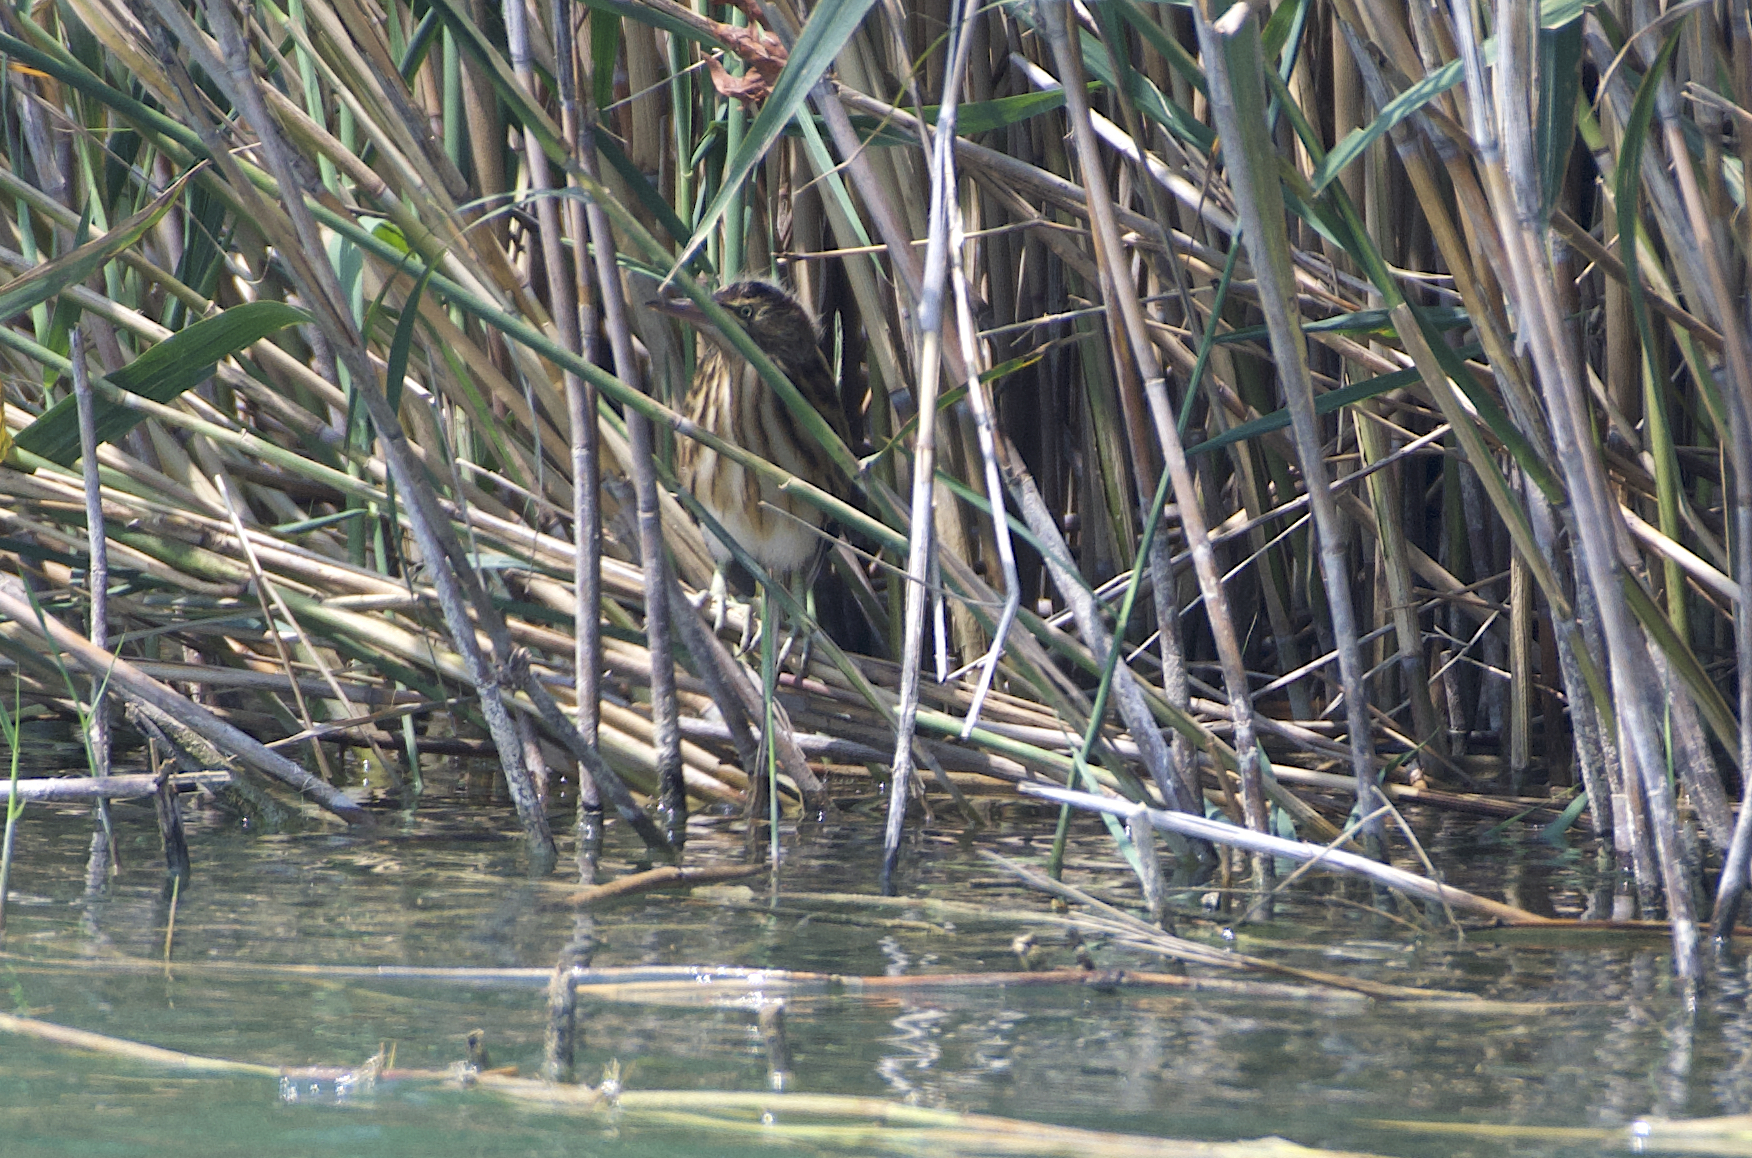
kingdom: Animalia
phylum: Chordata
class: Aves
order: Pelecaniformes
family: Ardeidae
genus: Ixobrychus
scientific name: Ixobrychus minutus
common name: Little bittern
